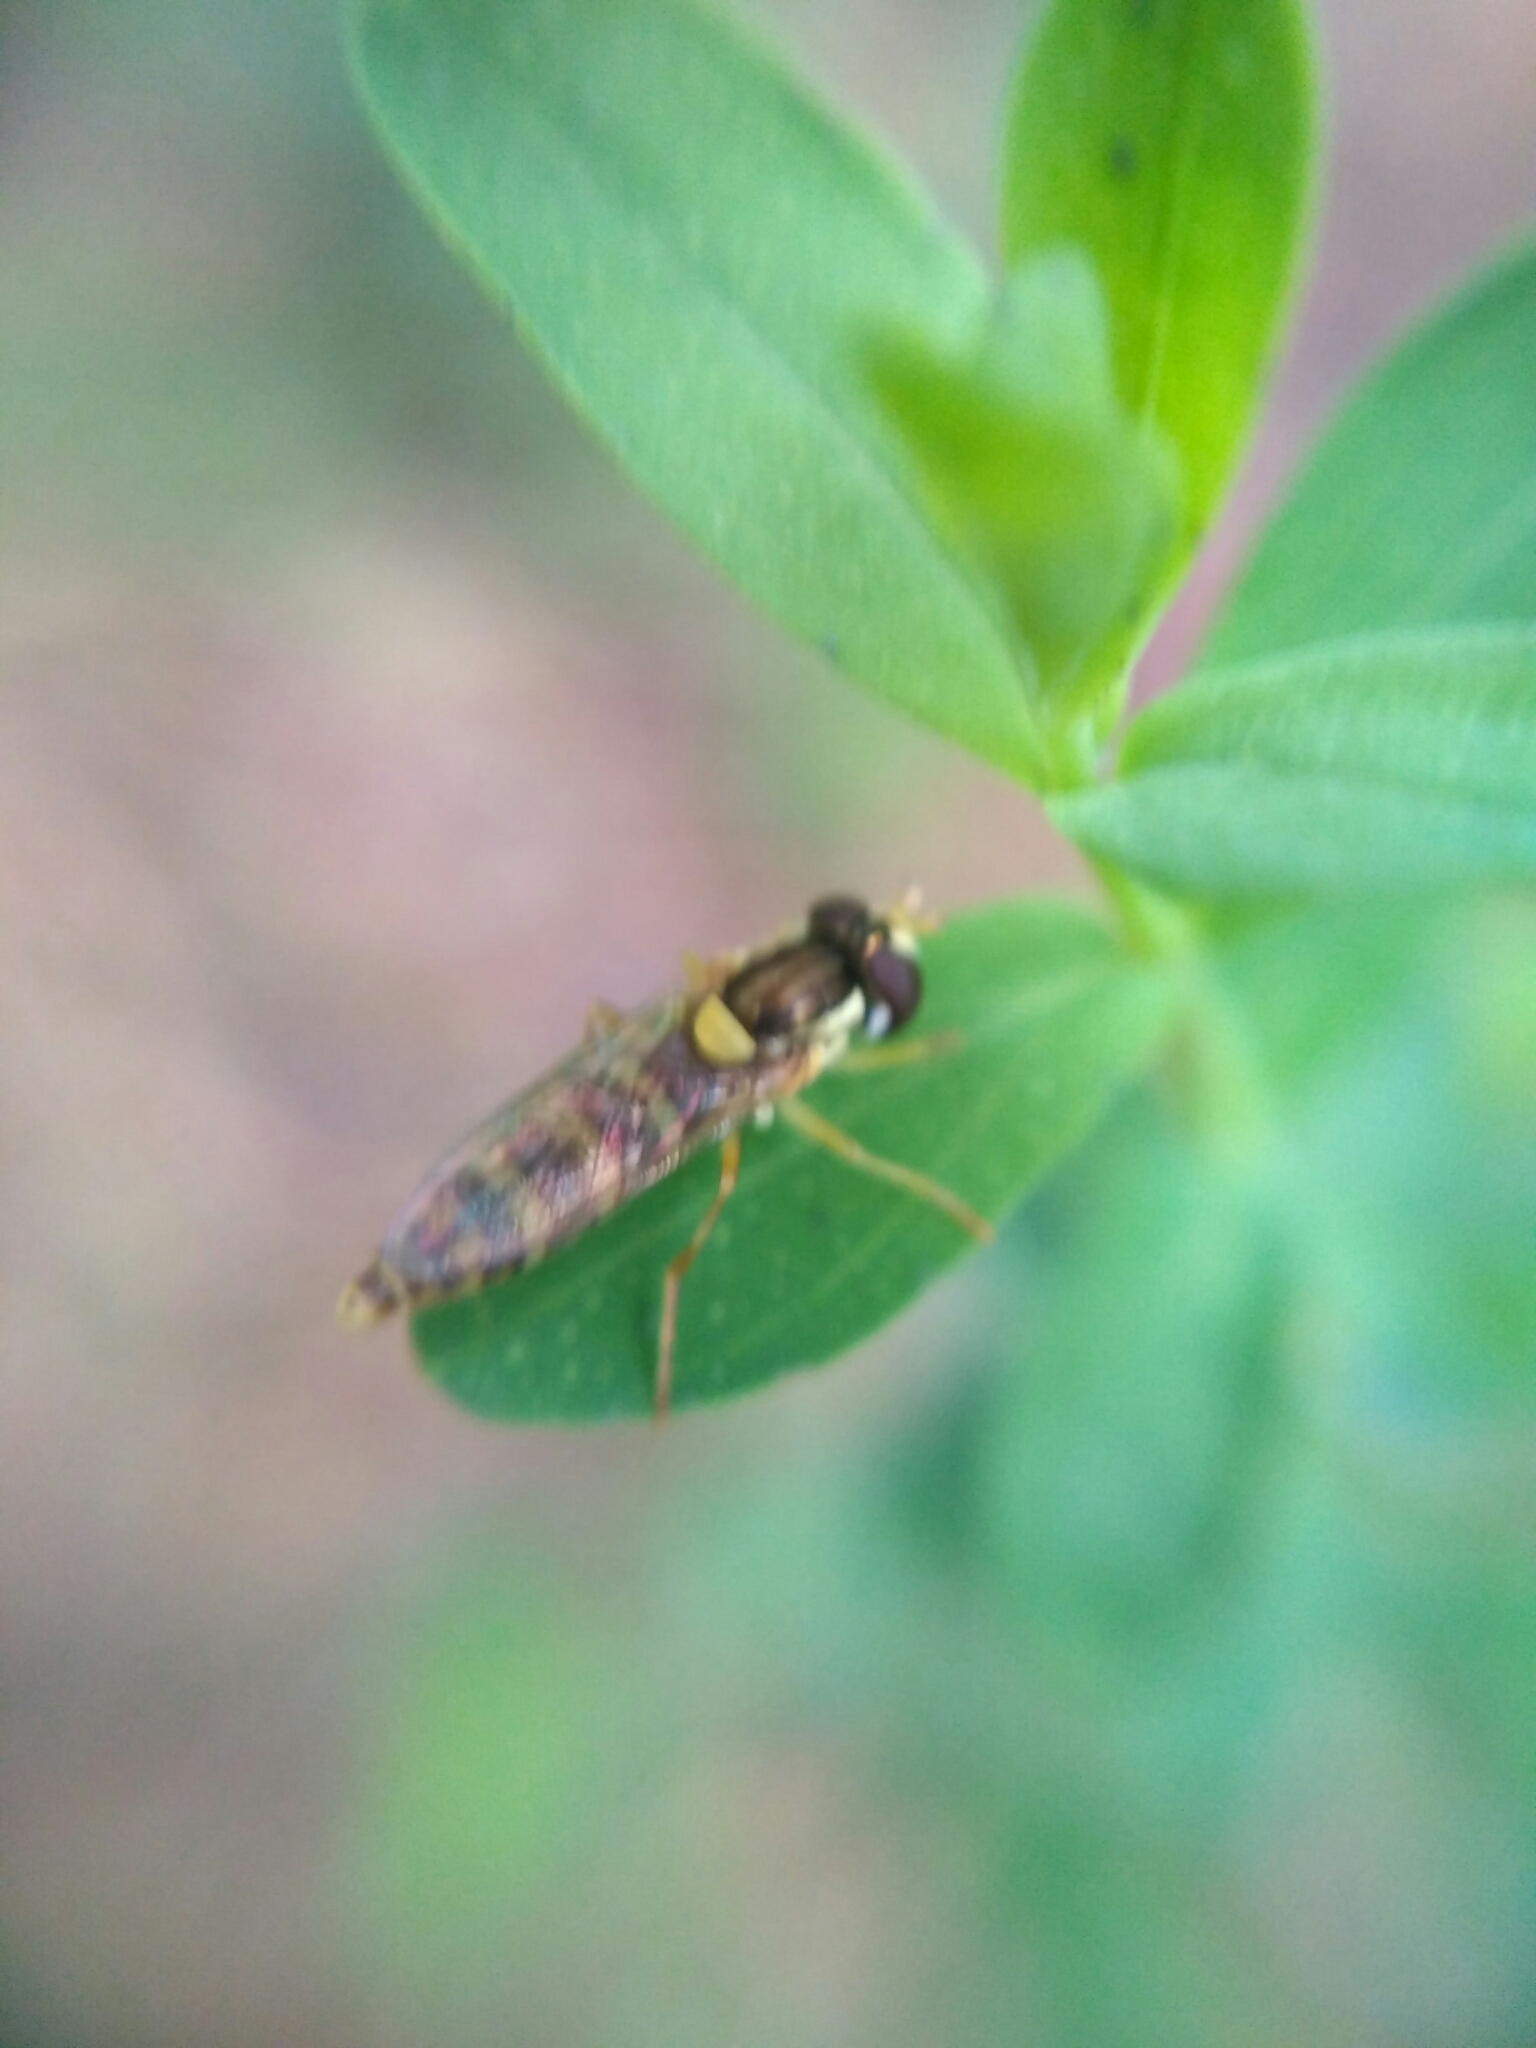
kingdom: Animalia
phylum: Arthropoda
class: Insecta
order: Diptera
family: Syrphidae
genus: Sphaerophoria
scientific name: Sphaerophoria
